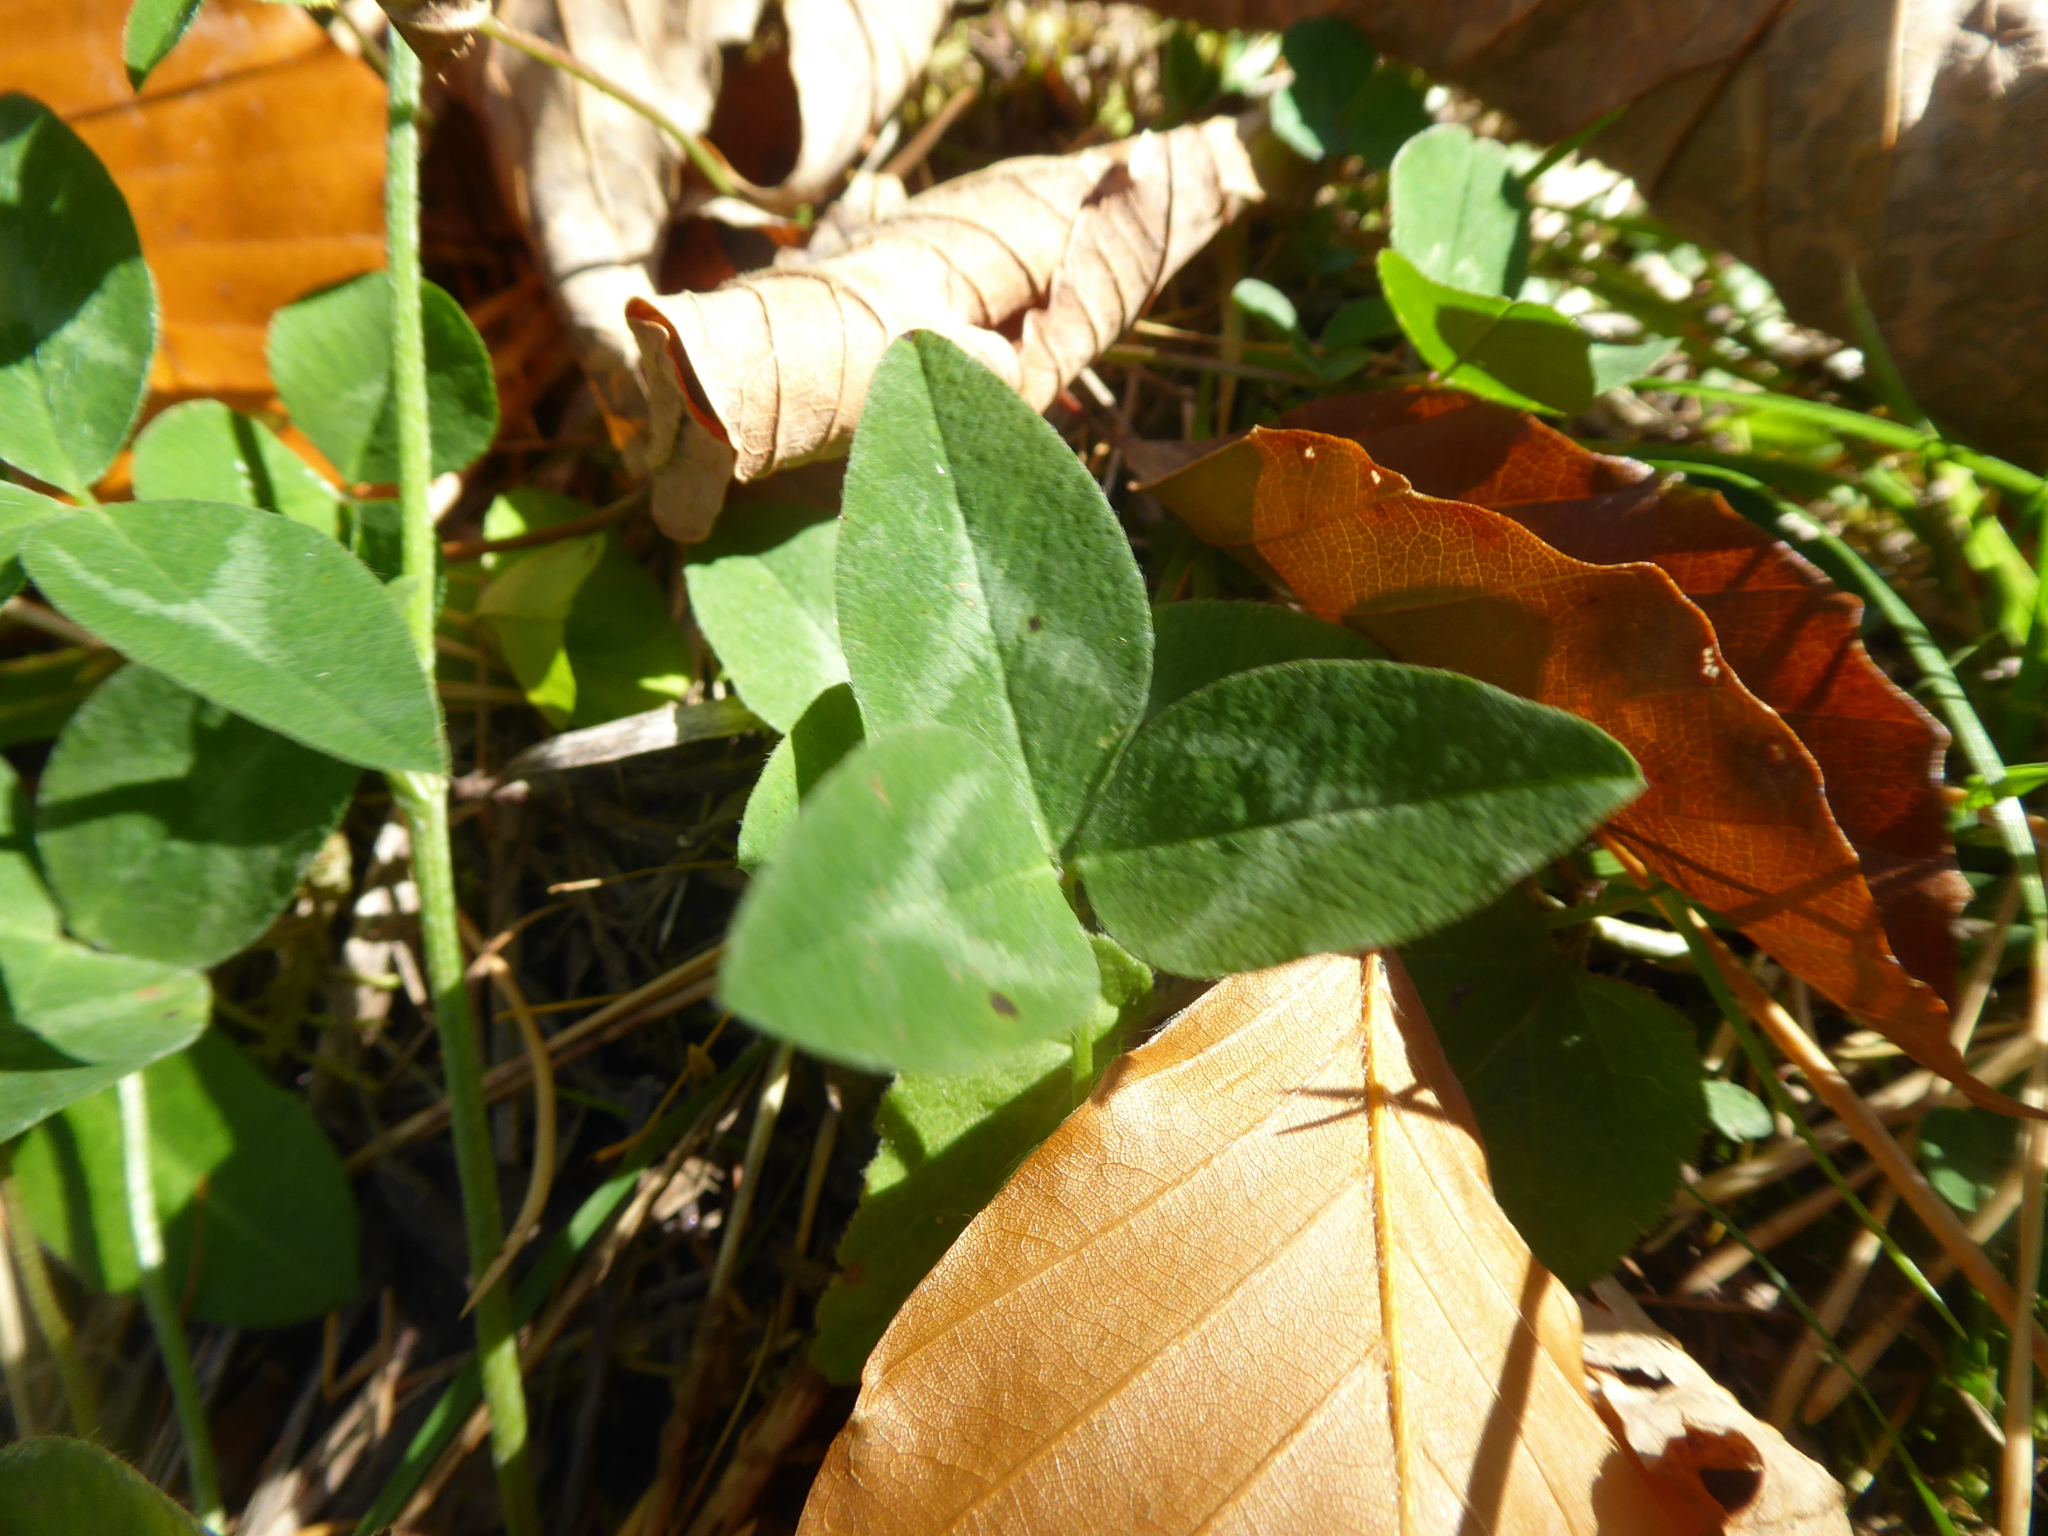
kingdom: Plantae
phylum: Tracheophyta
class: Magnoliopsida
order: Fabales
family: Fabaceae
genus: Trifolium
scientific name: Trifolium pratense
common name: Red clover
